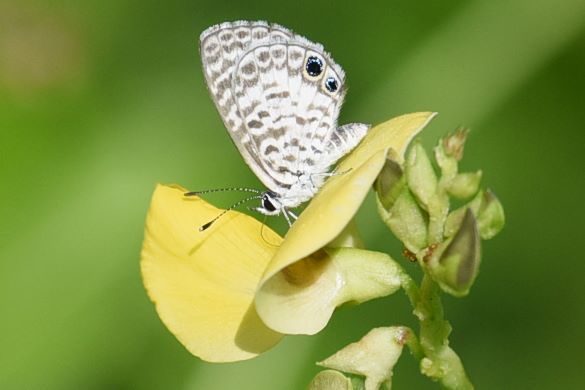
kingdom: Animalia
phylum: Arthropoda
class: Insecta
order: Lepidoptera
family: Lycaenidae
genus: Leptotes
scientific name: Leptotes cassius
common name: Cassius blue
